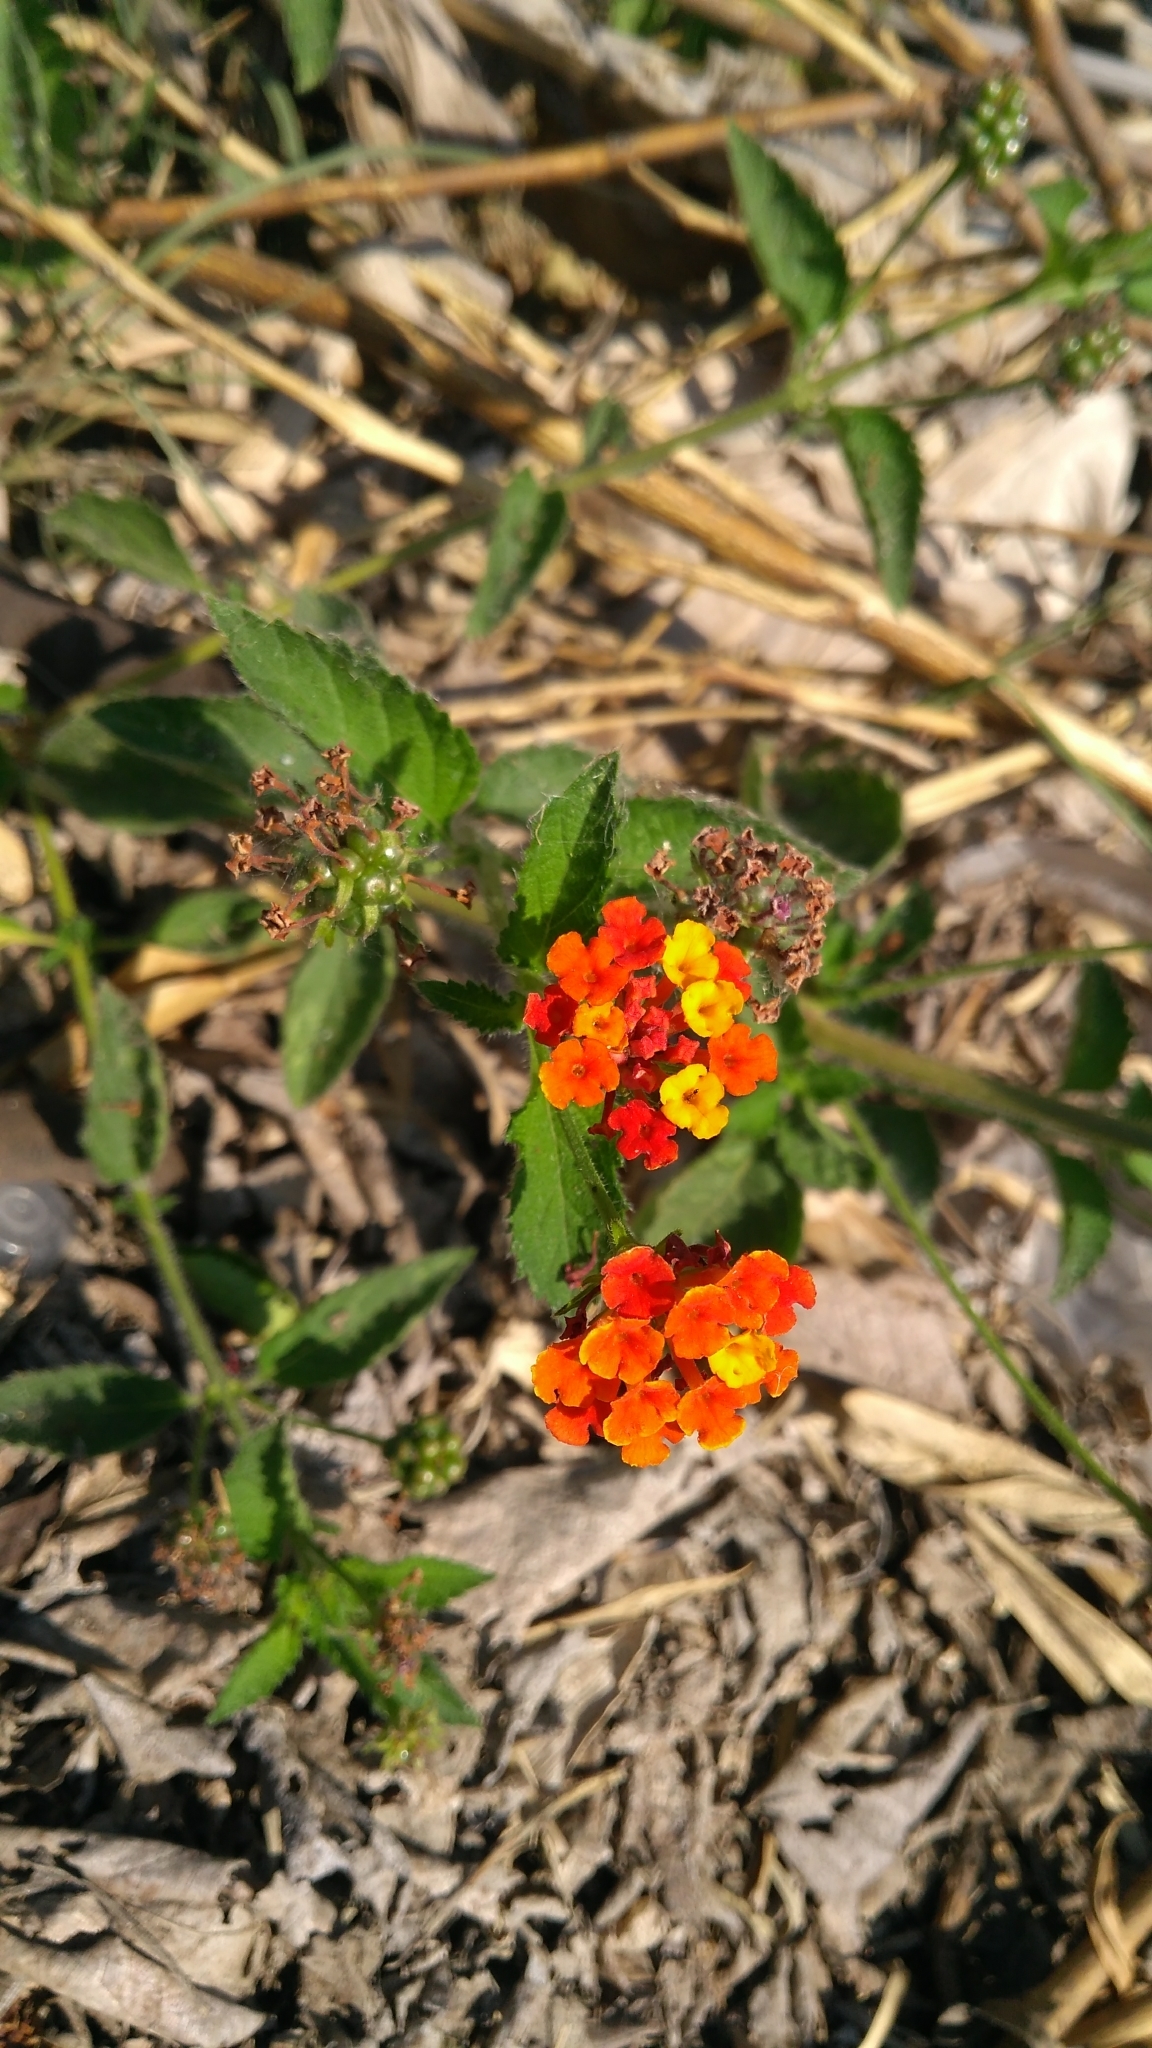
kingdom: Plantae
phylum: Tracheophyta
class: Magnoliopsida
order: Lamiales
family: Verbenaceae
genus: Lantana
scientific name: Lantana camara
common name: Lantana
